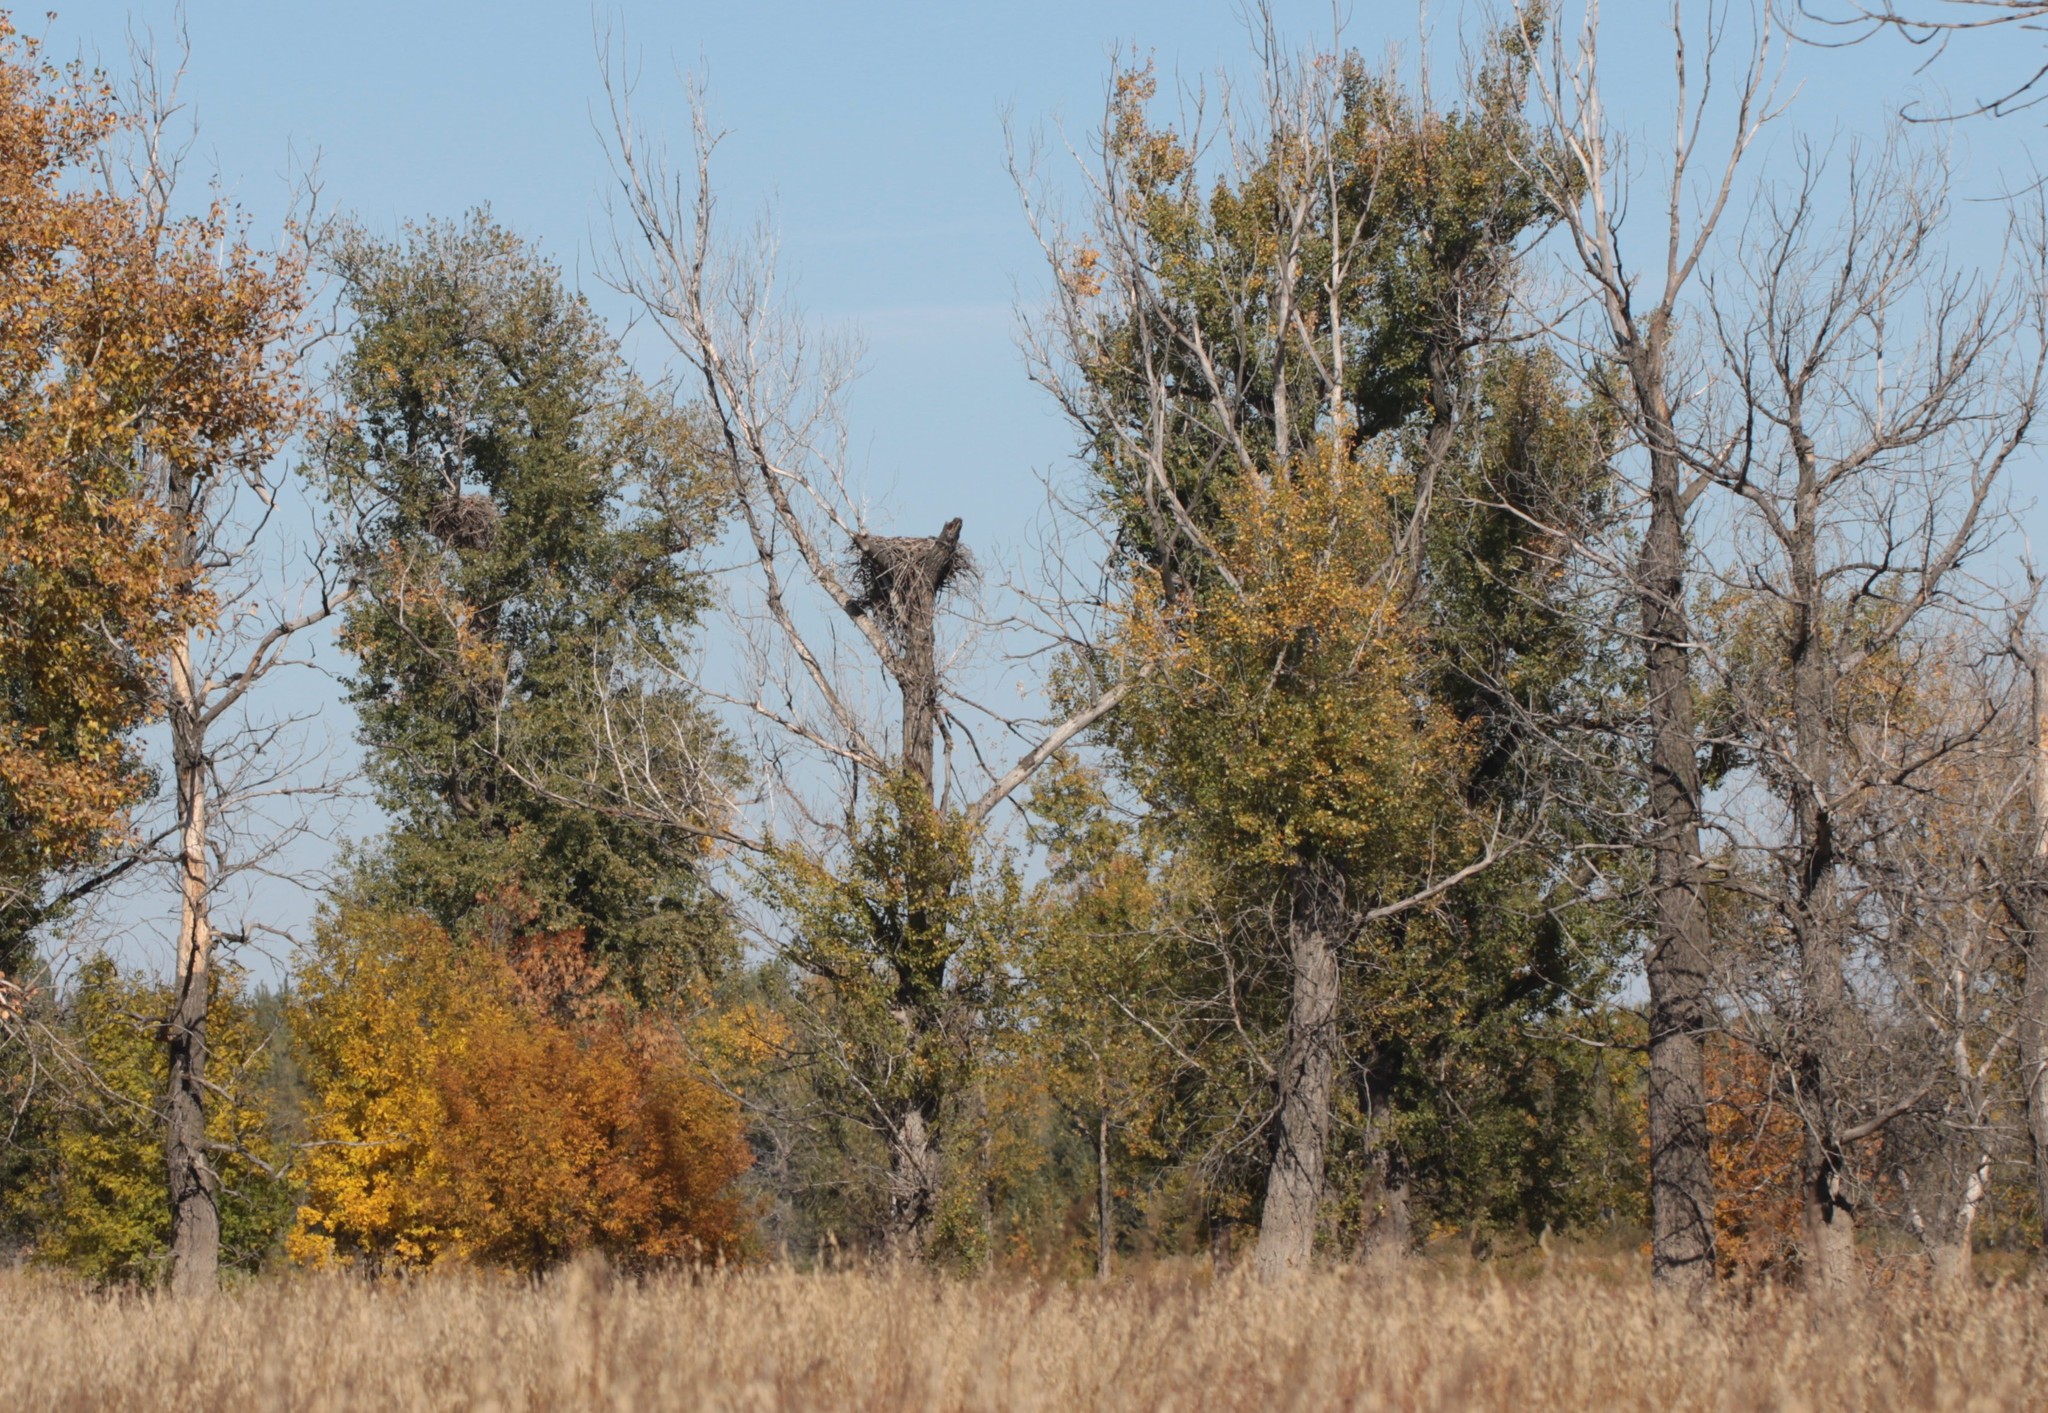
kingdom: Animalia
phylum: Chordata
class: Aves
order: Accipitriformes
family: Accipitridae
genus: Haliaeetus
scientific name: Haliaeetus albicilla
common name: White-tailed eagle
